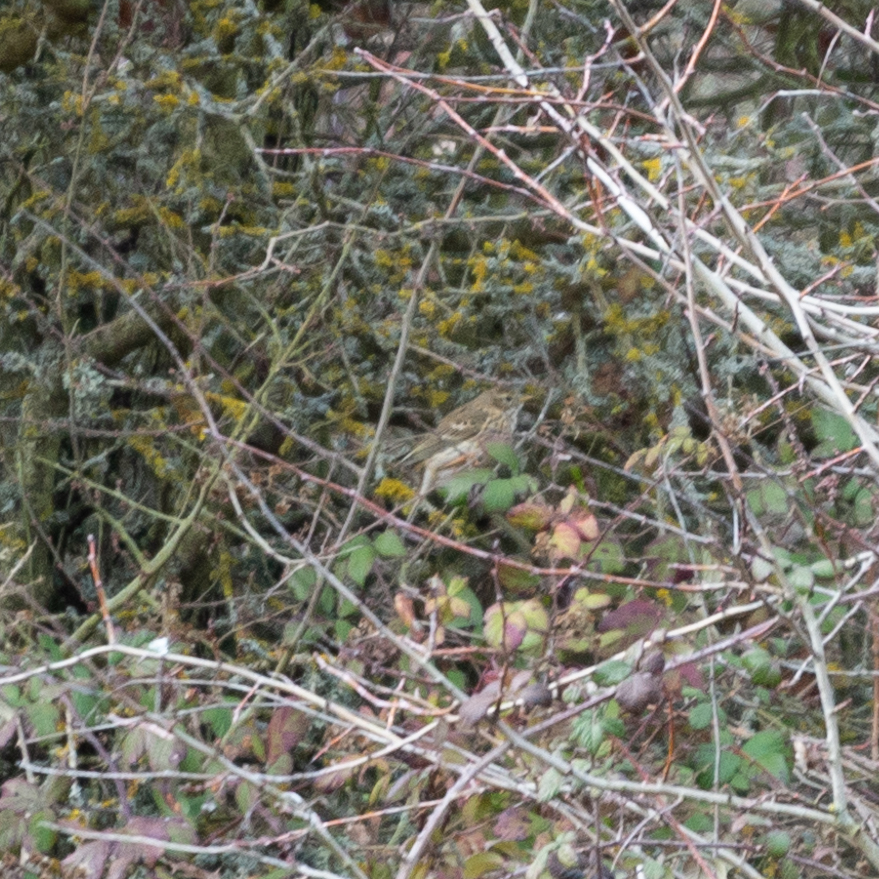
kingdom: Animalia
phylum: Chordata
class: Aves
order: Passeriformes
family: Motacillidae
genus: Anthus
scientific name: Anthus pratensis
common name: Meadow pipit
